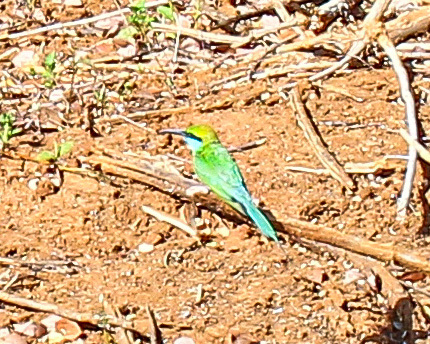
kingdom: Animalia
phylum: Chordata
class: Aves
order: Coraciiformes
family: Meropidae
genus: Merops
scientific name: Merops orientalis
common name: Green bee-eater
